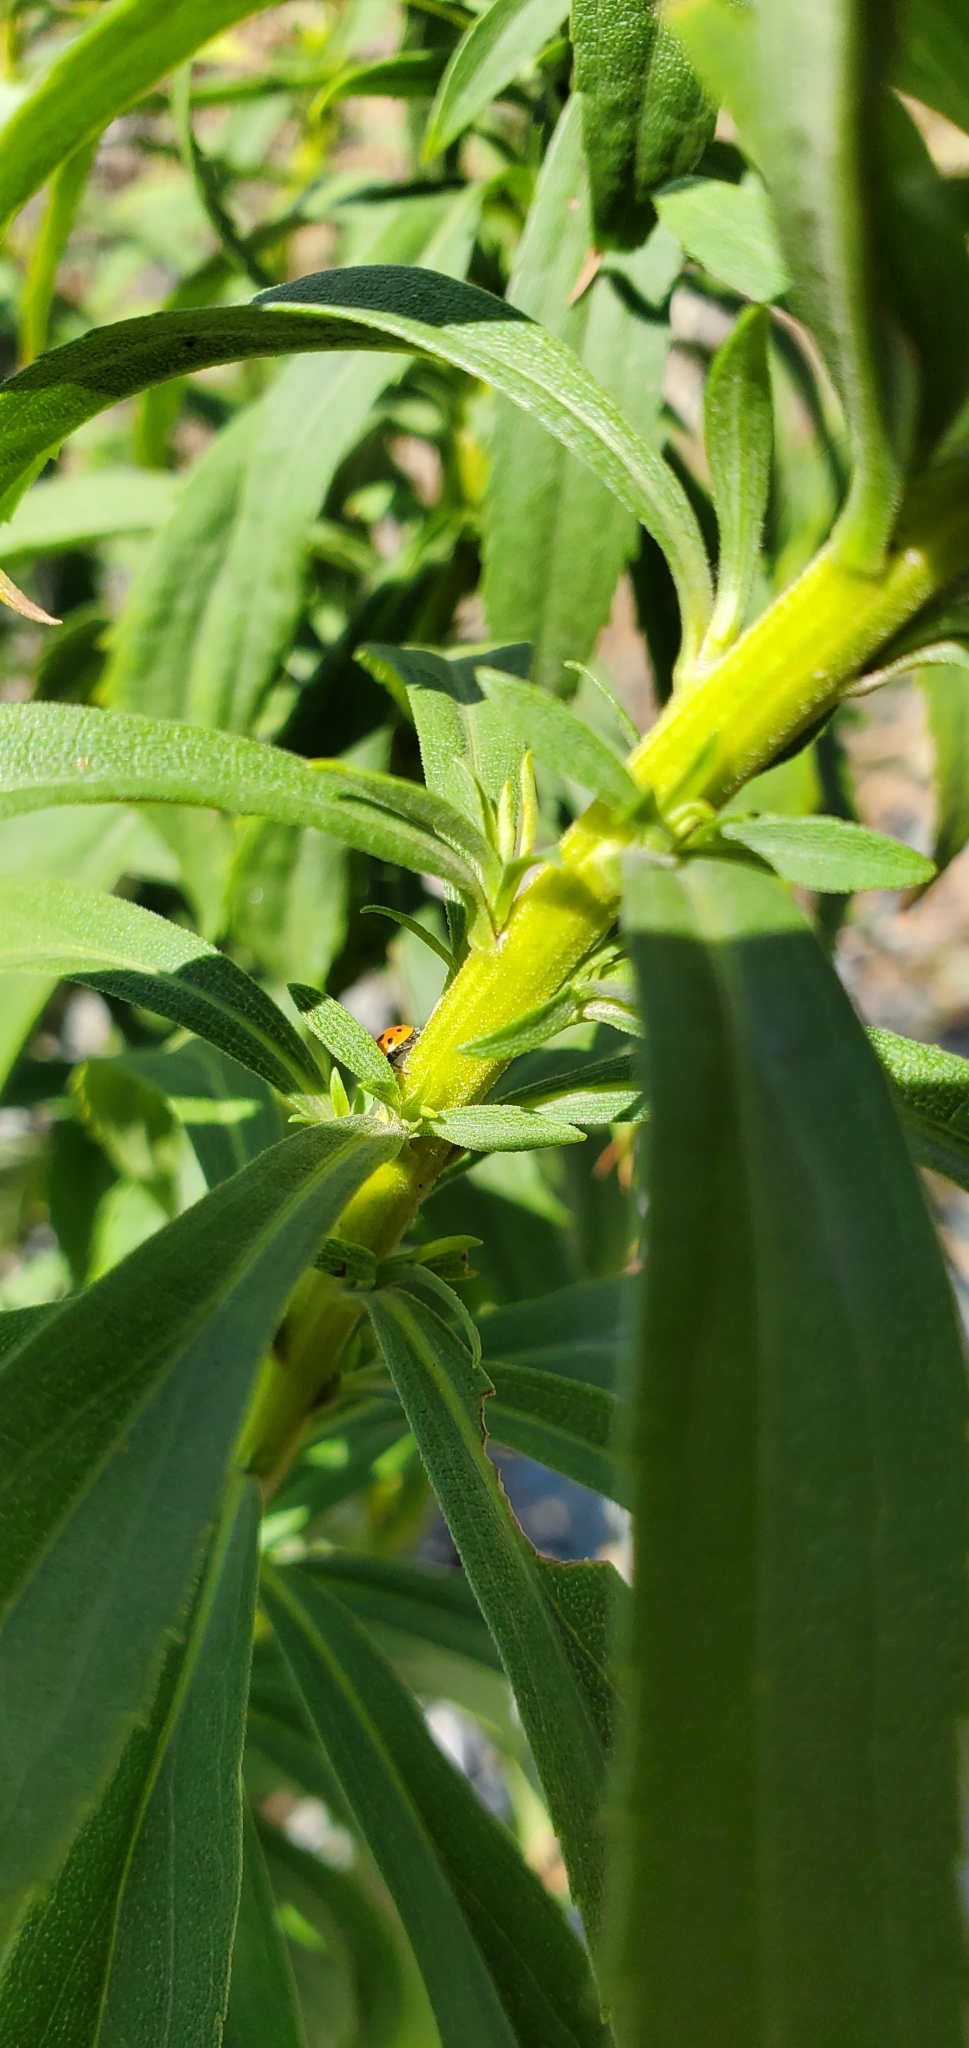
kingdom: Plantae
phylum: Tracheophyta
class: Magnoliopsida
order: Asterales
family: Asteraceae
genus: Solidago
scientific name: Solidago lepida
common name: Western canada goldenrod
